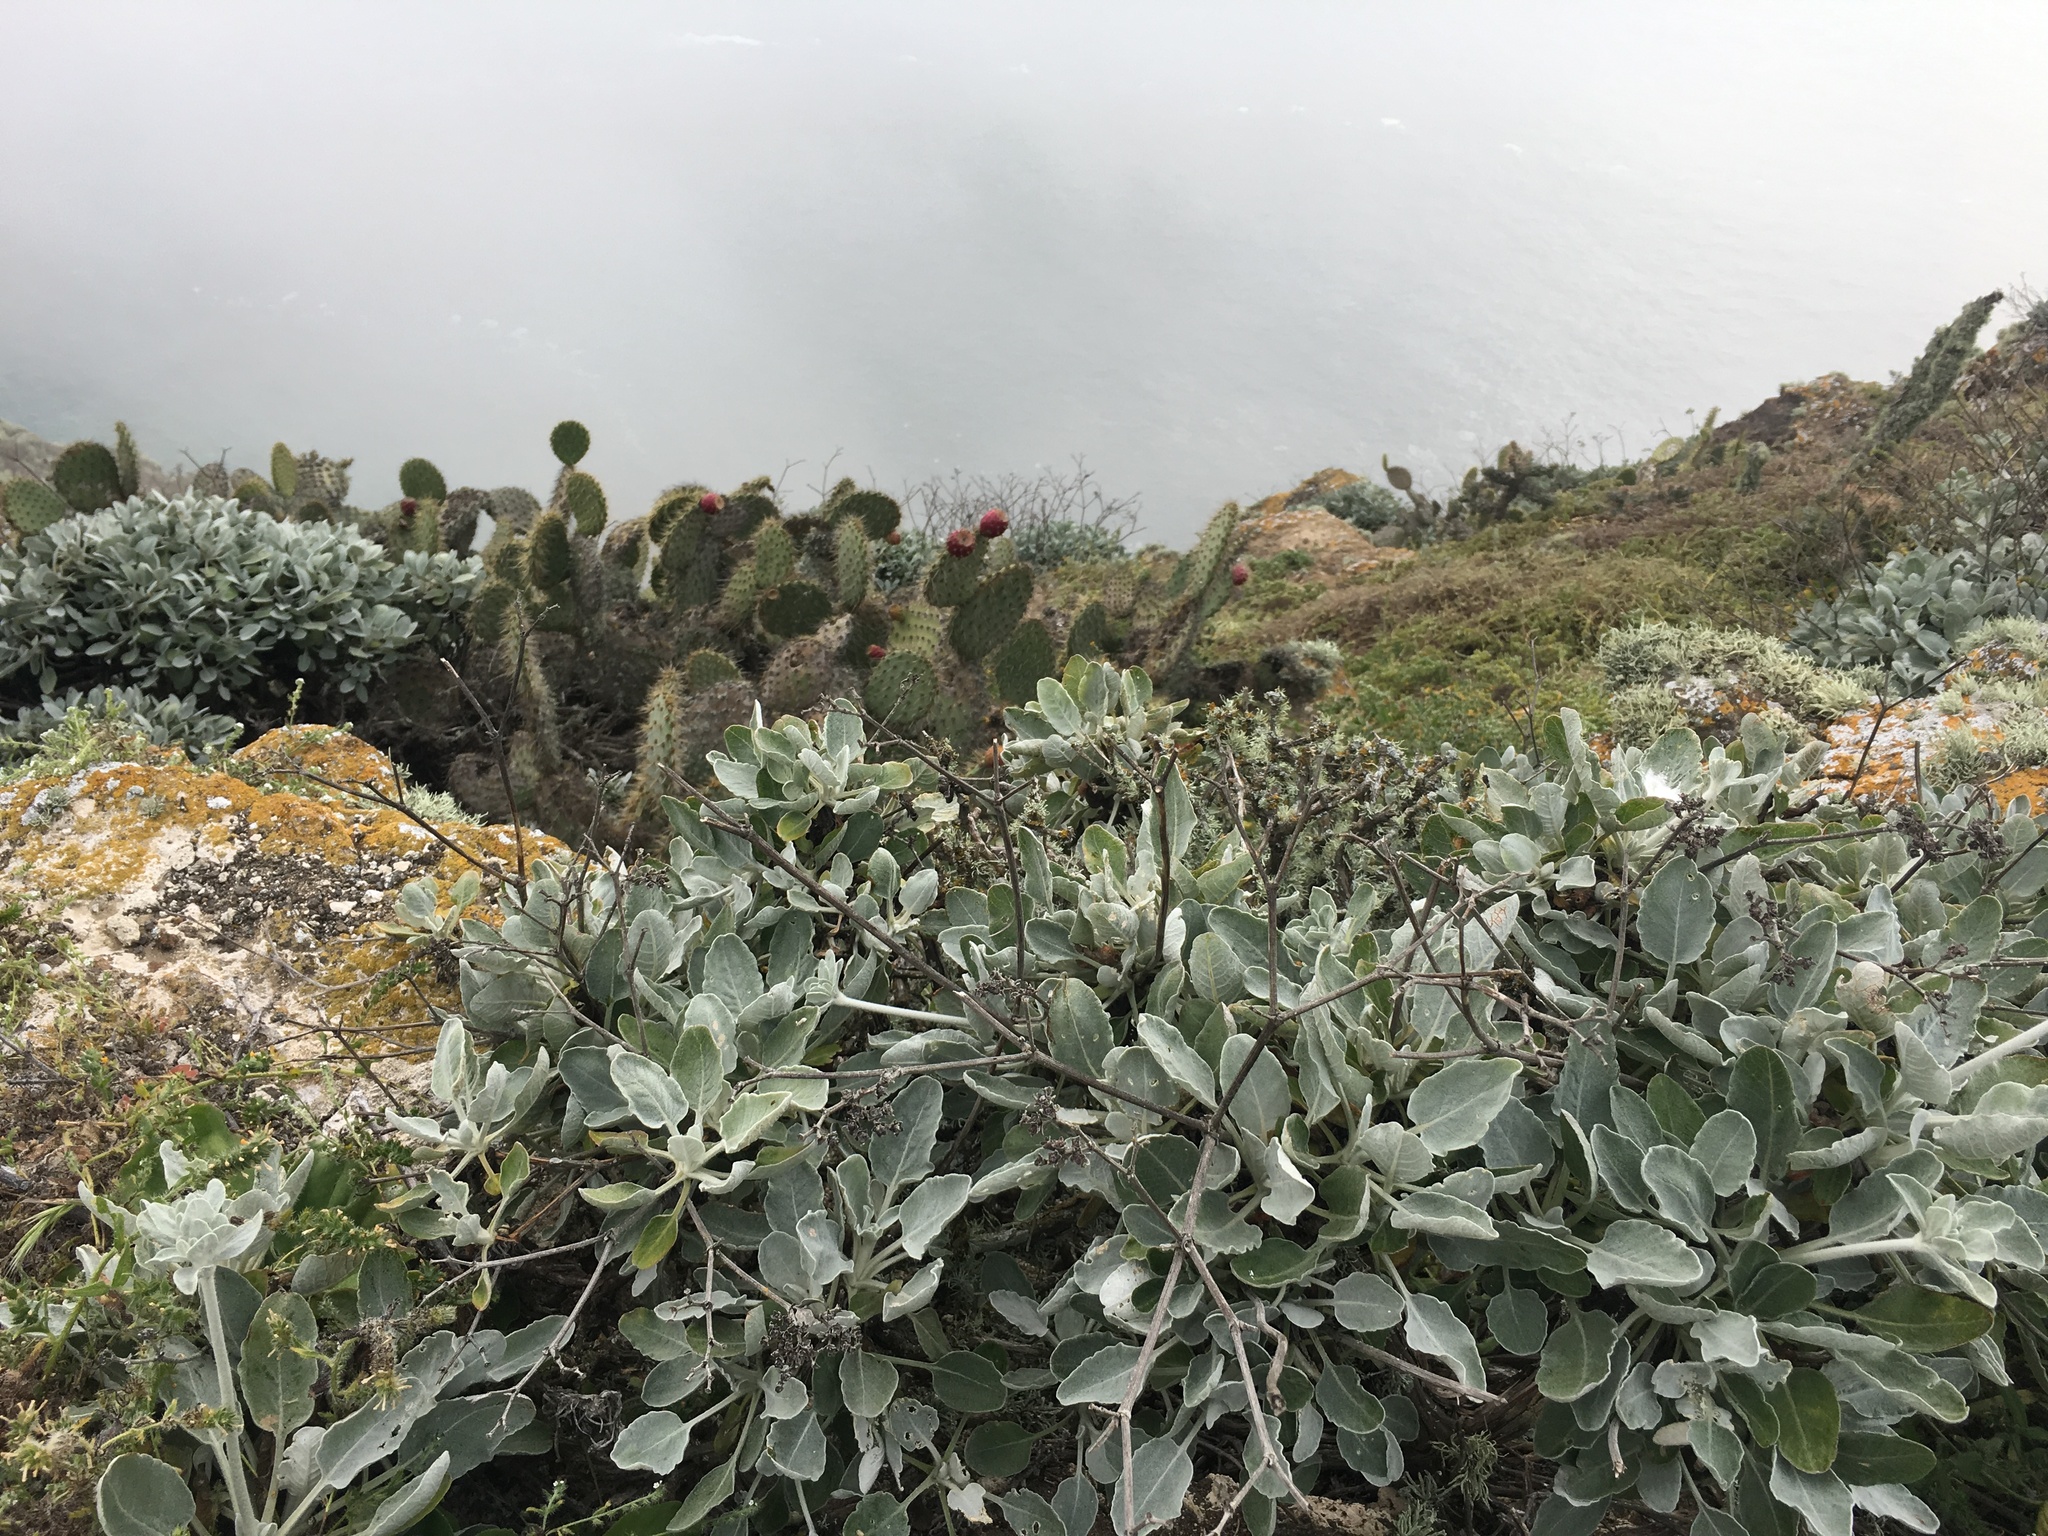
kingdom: Plantae
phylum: Tracheophyta
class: Magnoliopsida
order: Caryophyllales
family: Polygonaceae
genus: Eriogonum
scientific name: Eriogonum giganteum
